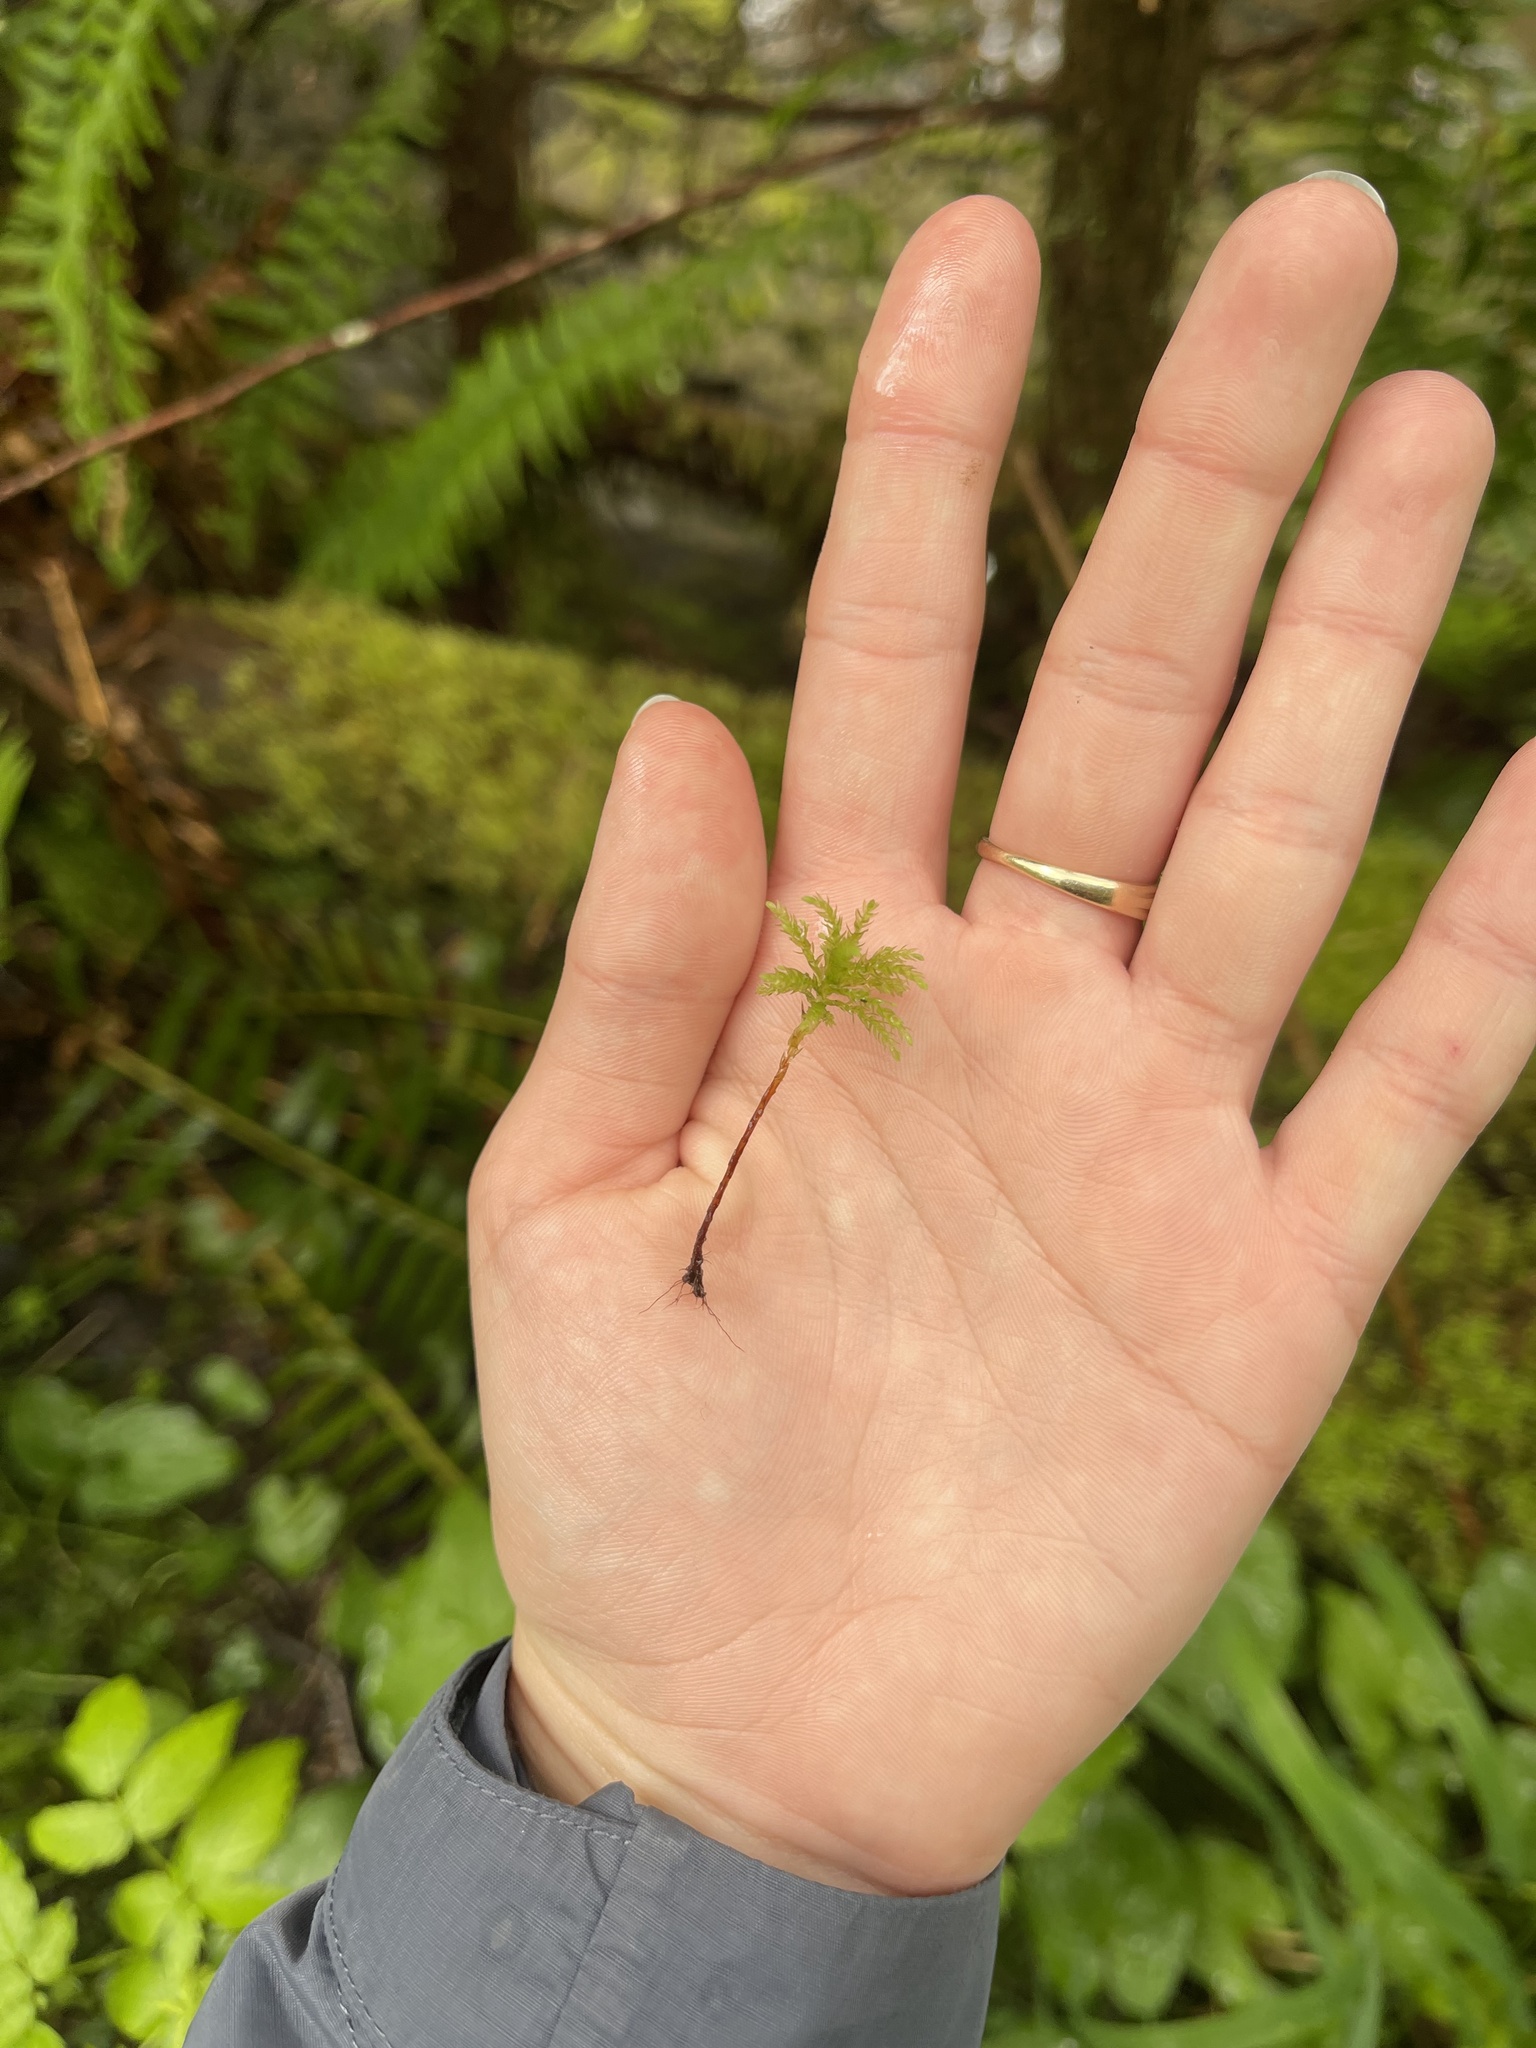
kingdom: Plantae
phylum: Bryophyta
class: Bryopsida
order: Bryales
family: Mniaceae
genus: Leucolepis
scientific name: Leucolepis acanthoneura
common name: Leucolepis umbrella moss
